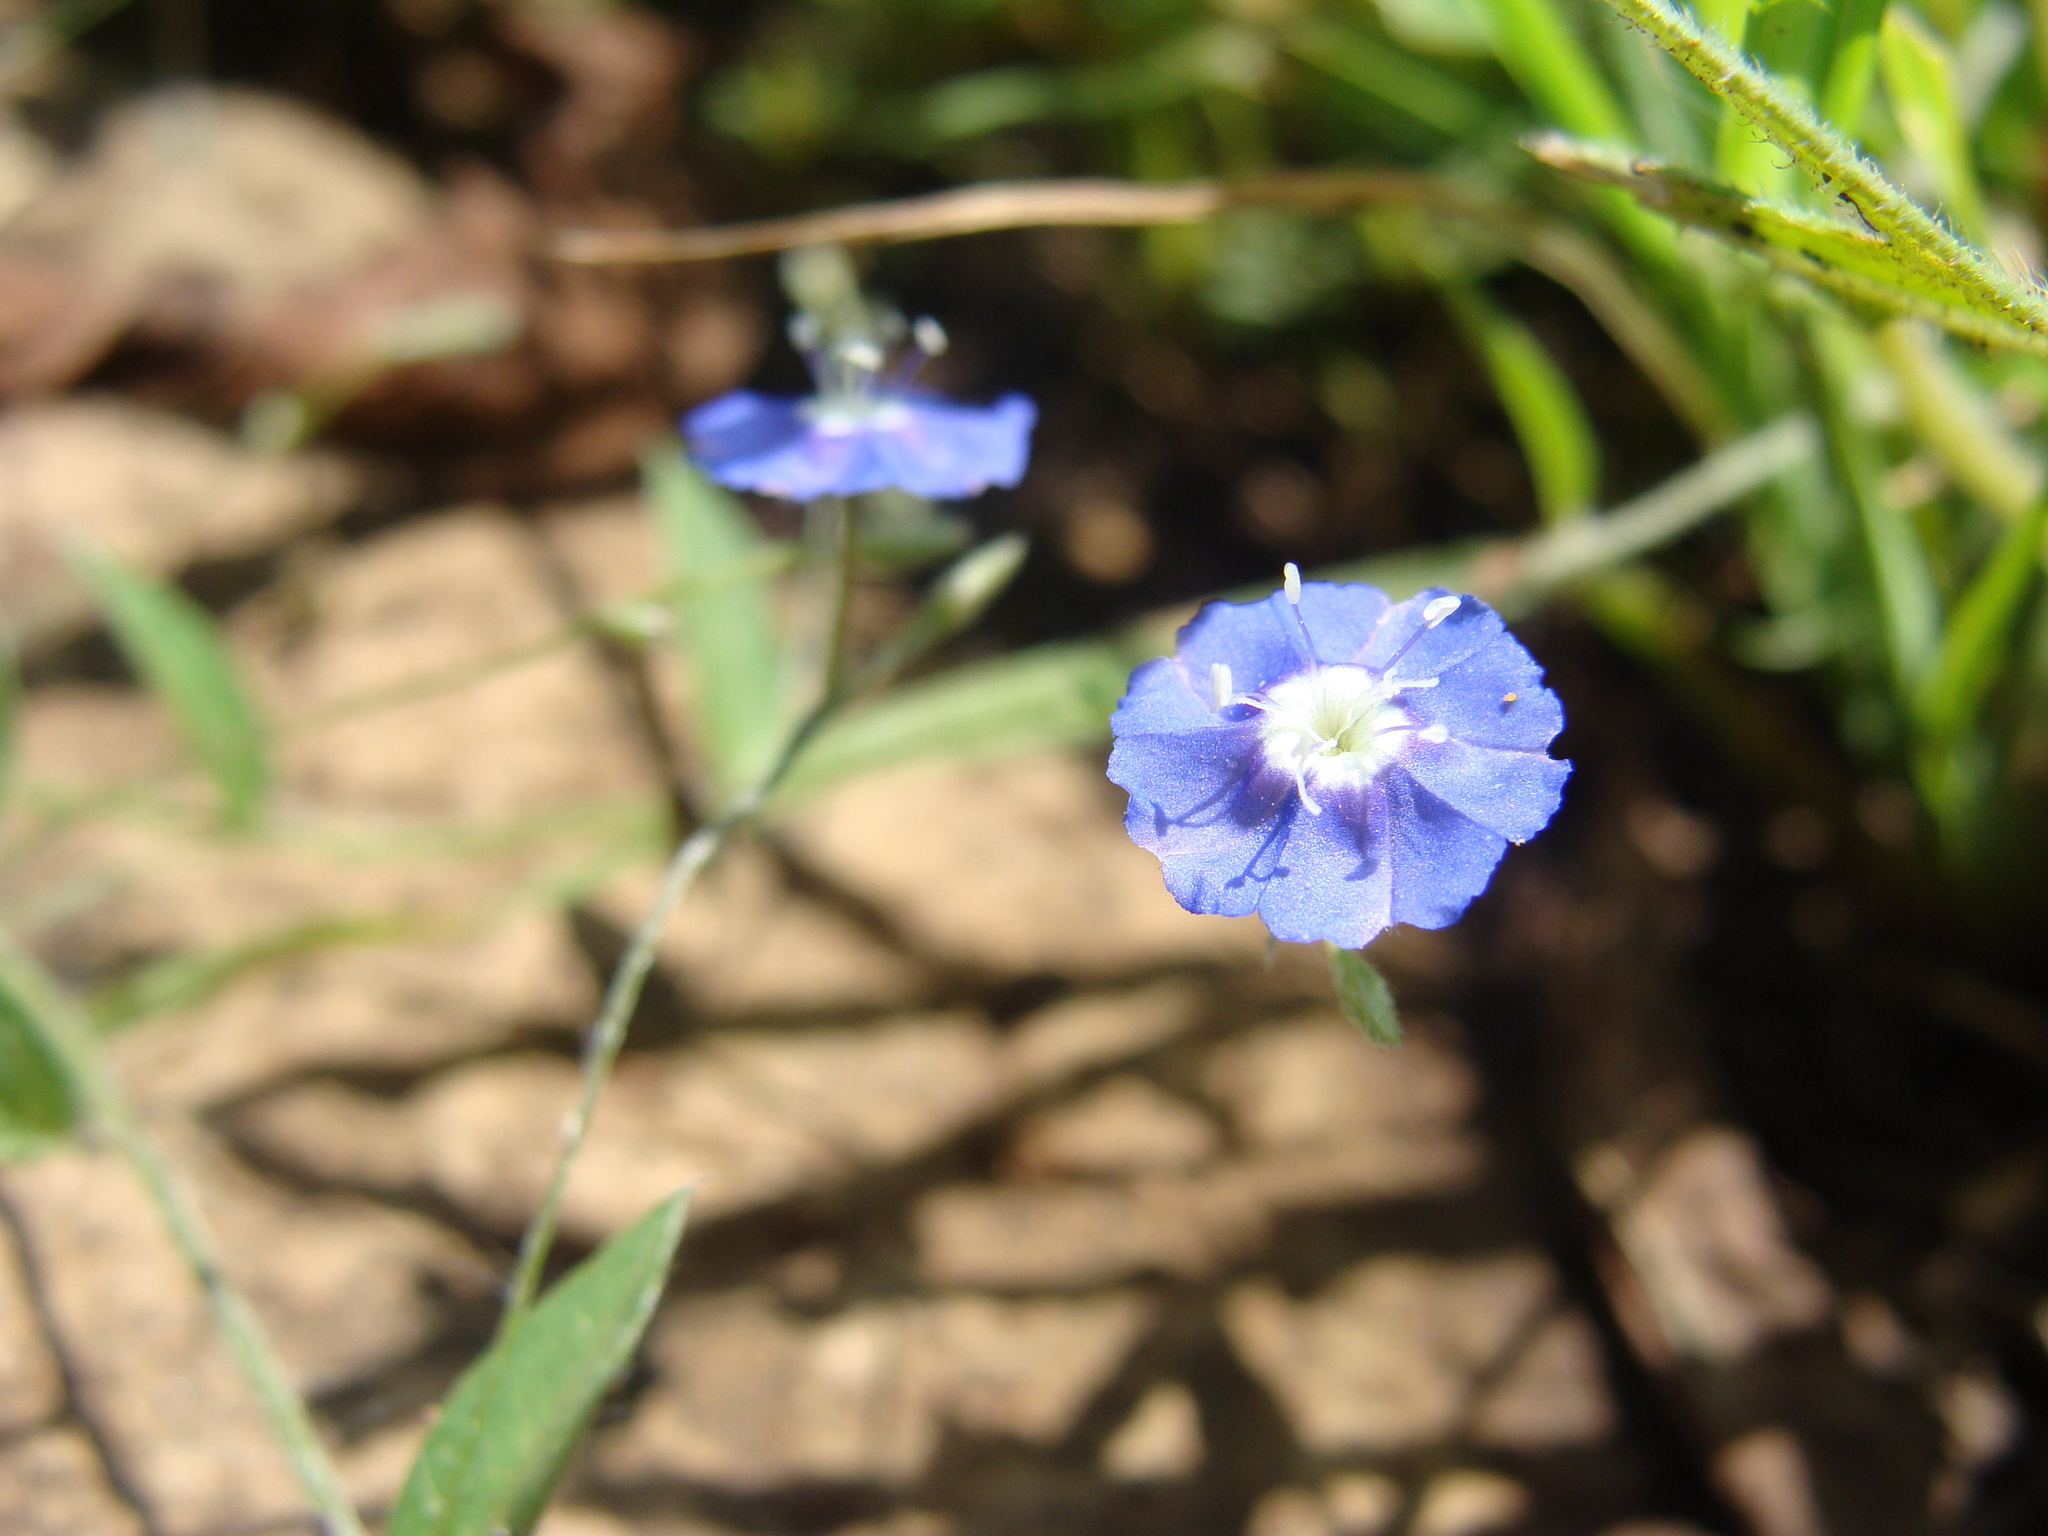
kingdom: Plantae
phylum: Tracheophyta
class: Magnoliopsida
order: Solanales
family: Convolvulaceae
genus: Evolvulus
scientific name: Evolvulus alsinoides
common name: Slender dwarf morning-glory
